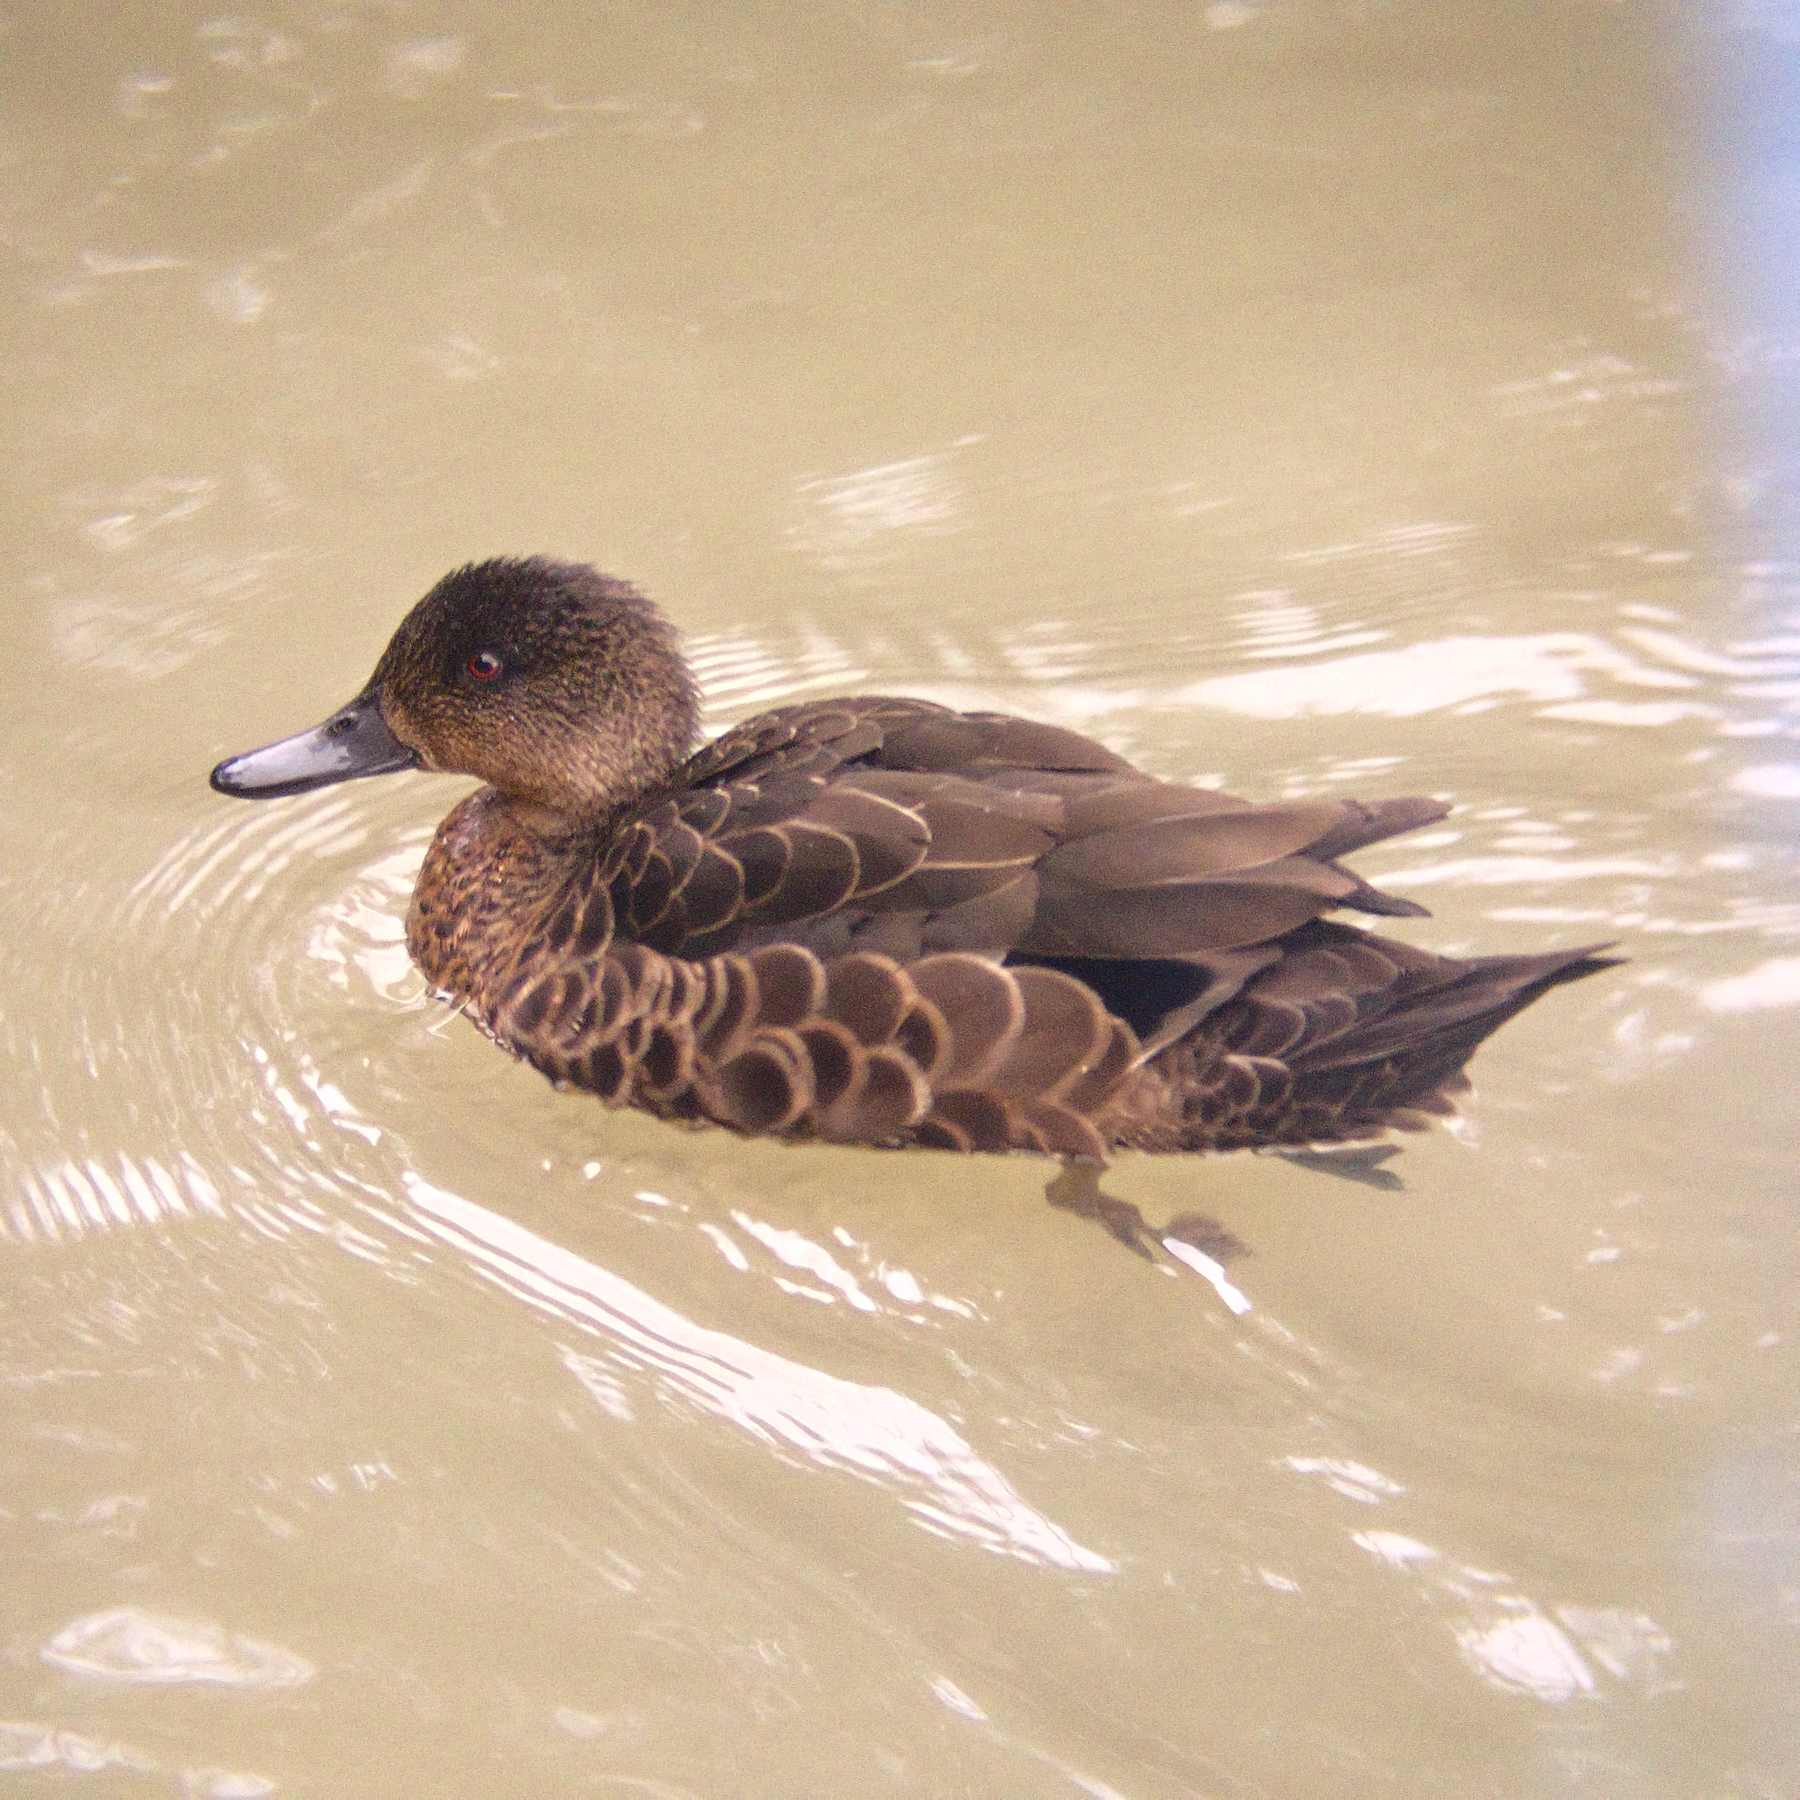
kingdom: Animalia
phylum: Chordata
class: Aves
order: Anseriformes
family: Anatidae
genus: Anas
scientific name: Anas castanea
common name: Chestnut teal
